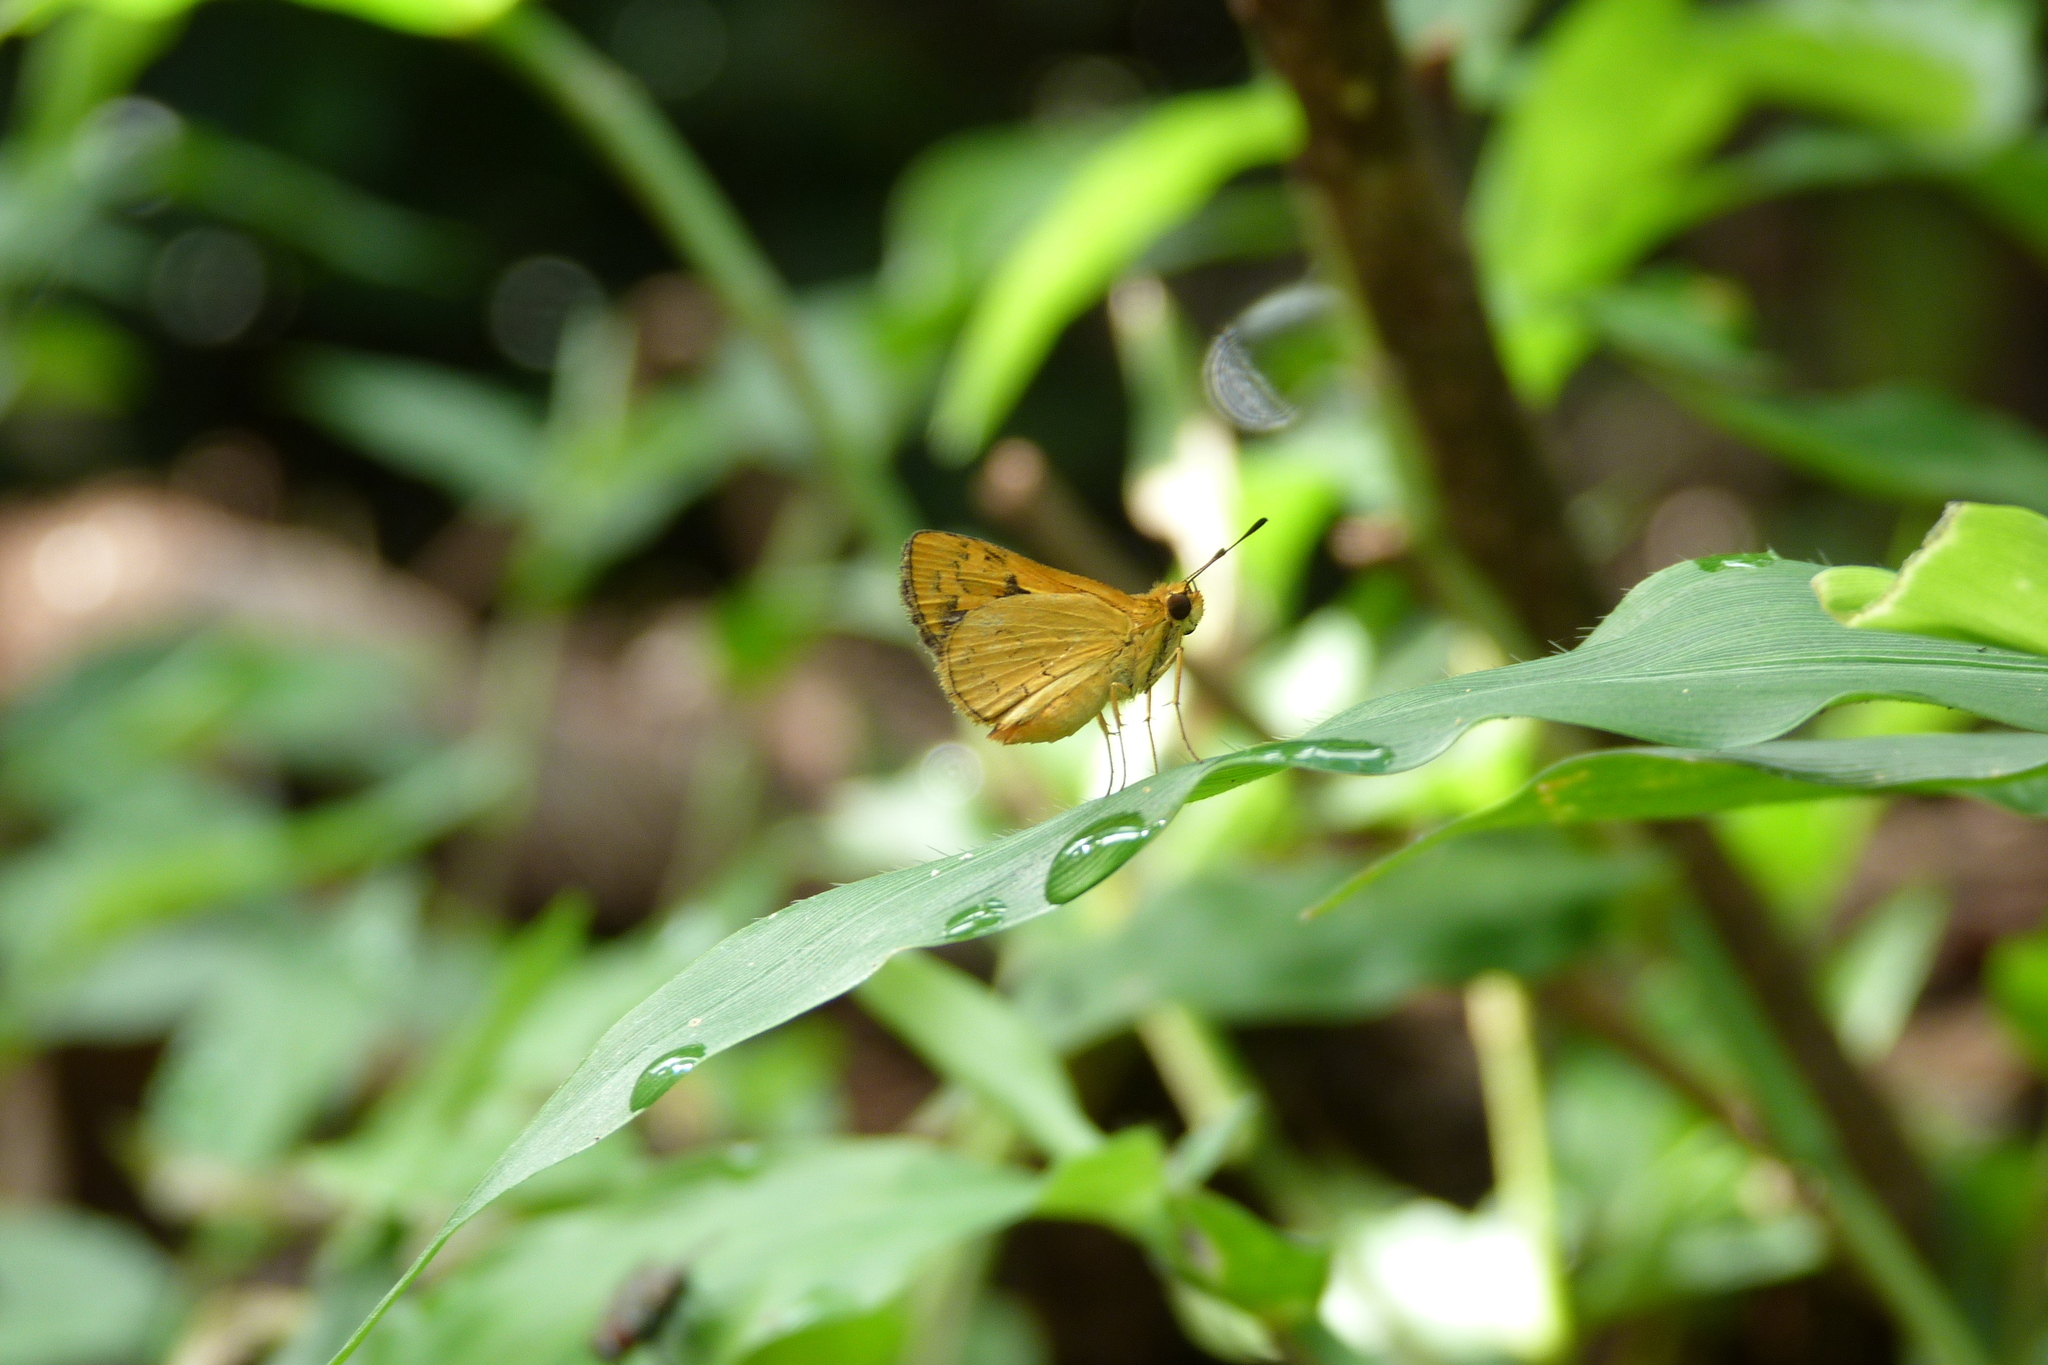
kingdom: Animalia
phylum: Arthropoda
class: Insecta
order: Lepidoptera
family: Hesperiidae
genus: Ocybadistes
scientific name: Ocybadistes ardea
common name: Dark orange dart
